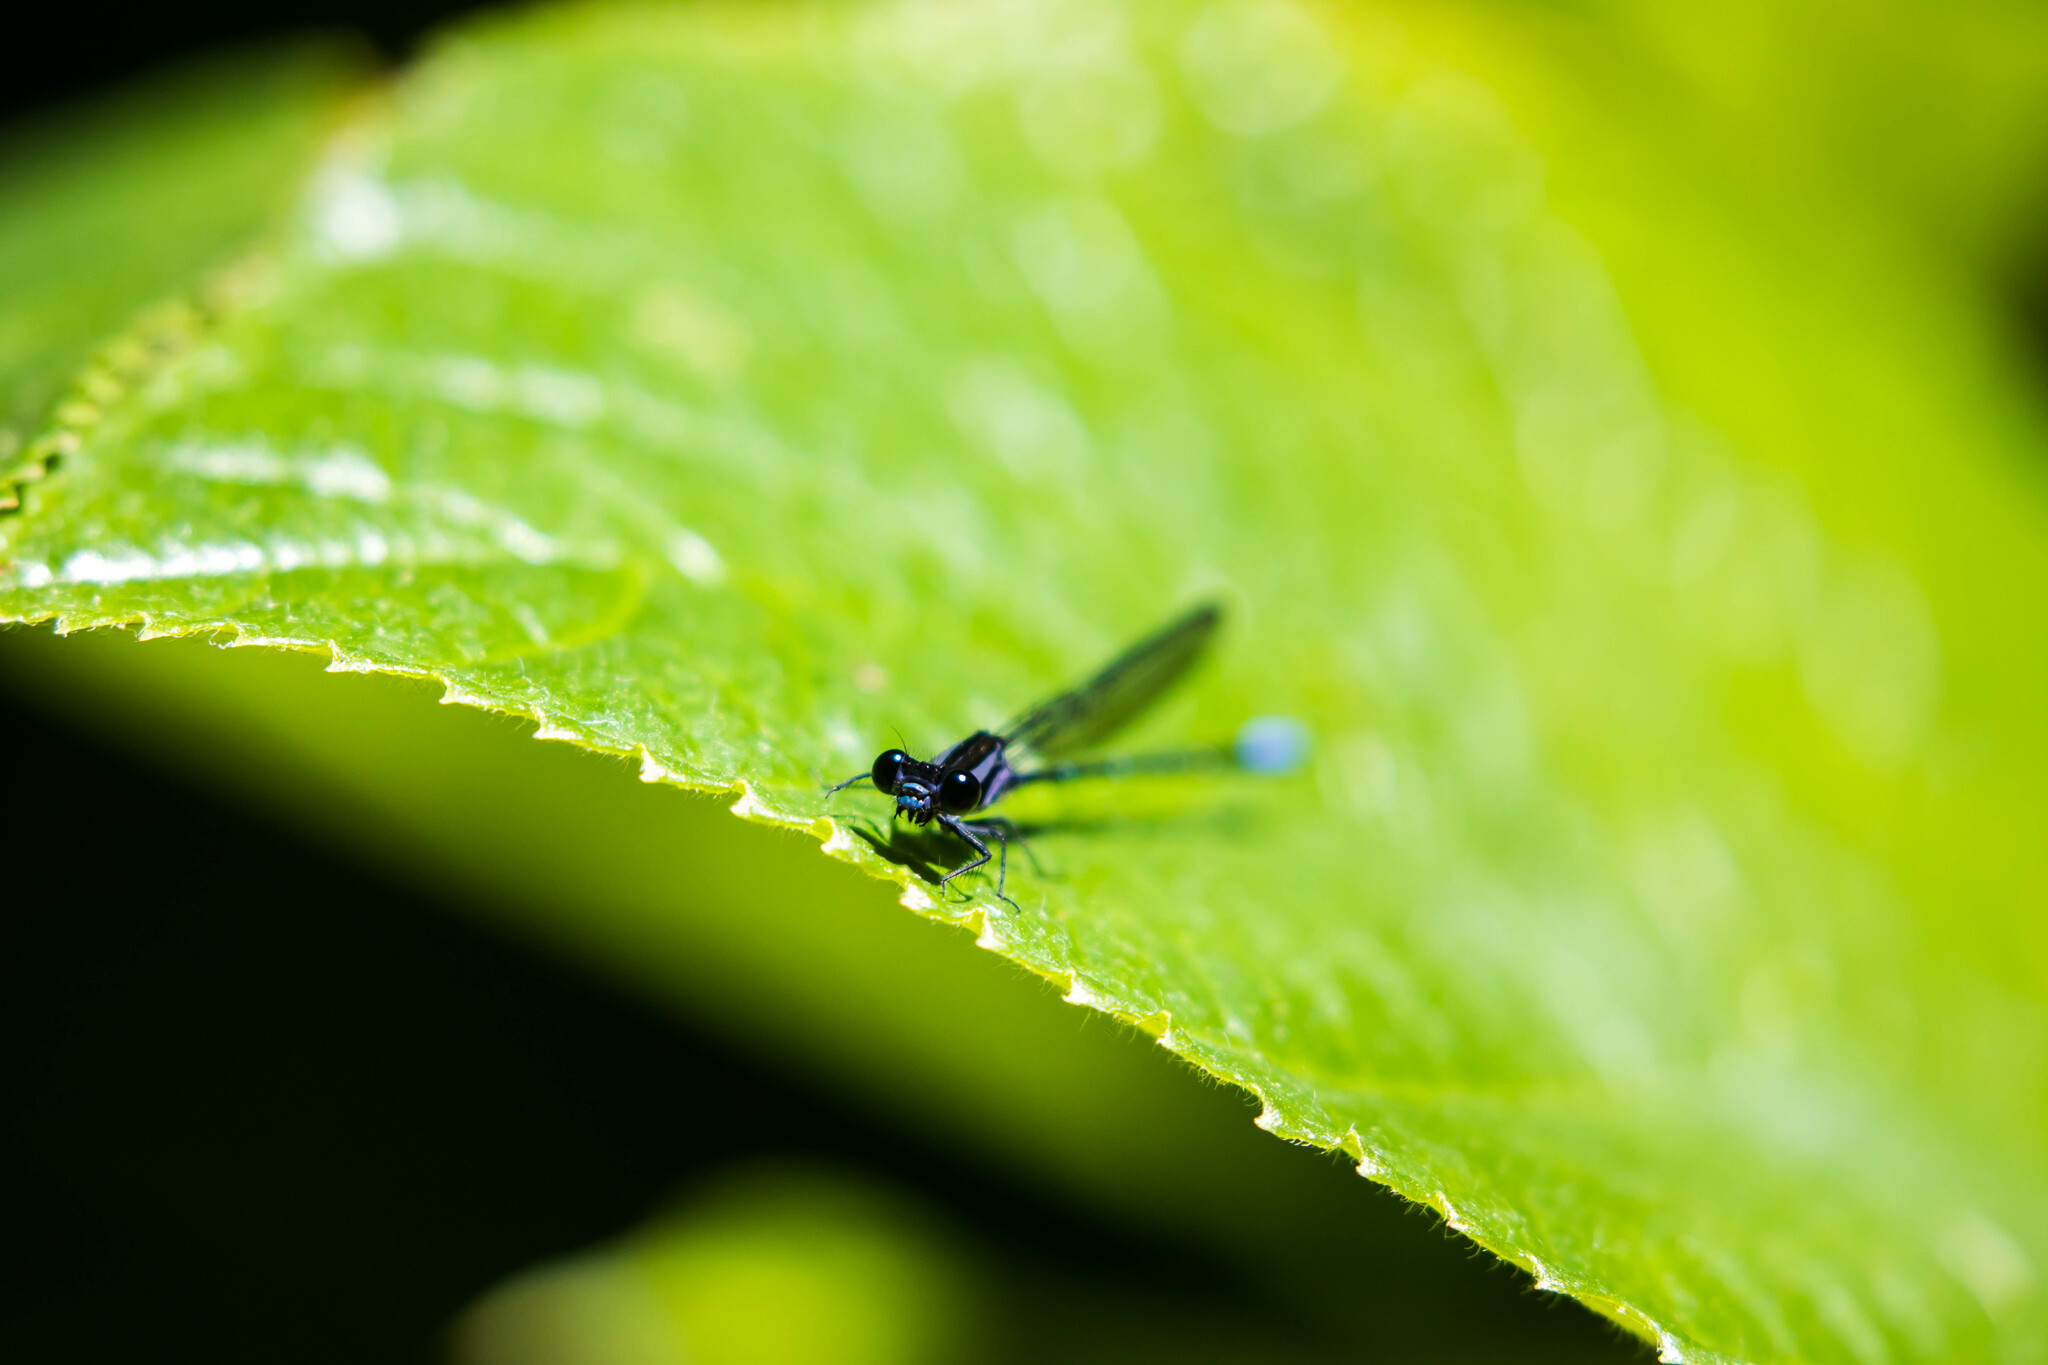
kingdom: Animalia
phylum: Arthropoda
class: Insecta
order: Odonata
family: Coenagrionidae
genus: Argia
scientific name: Argia oculata
